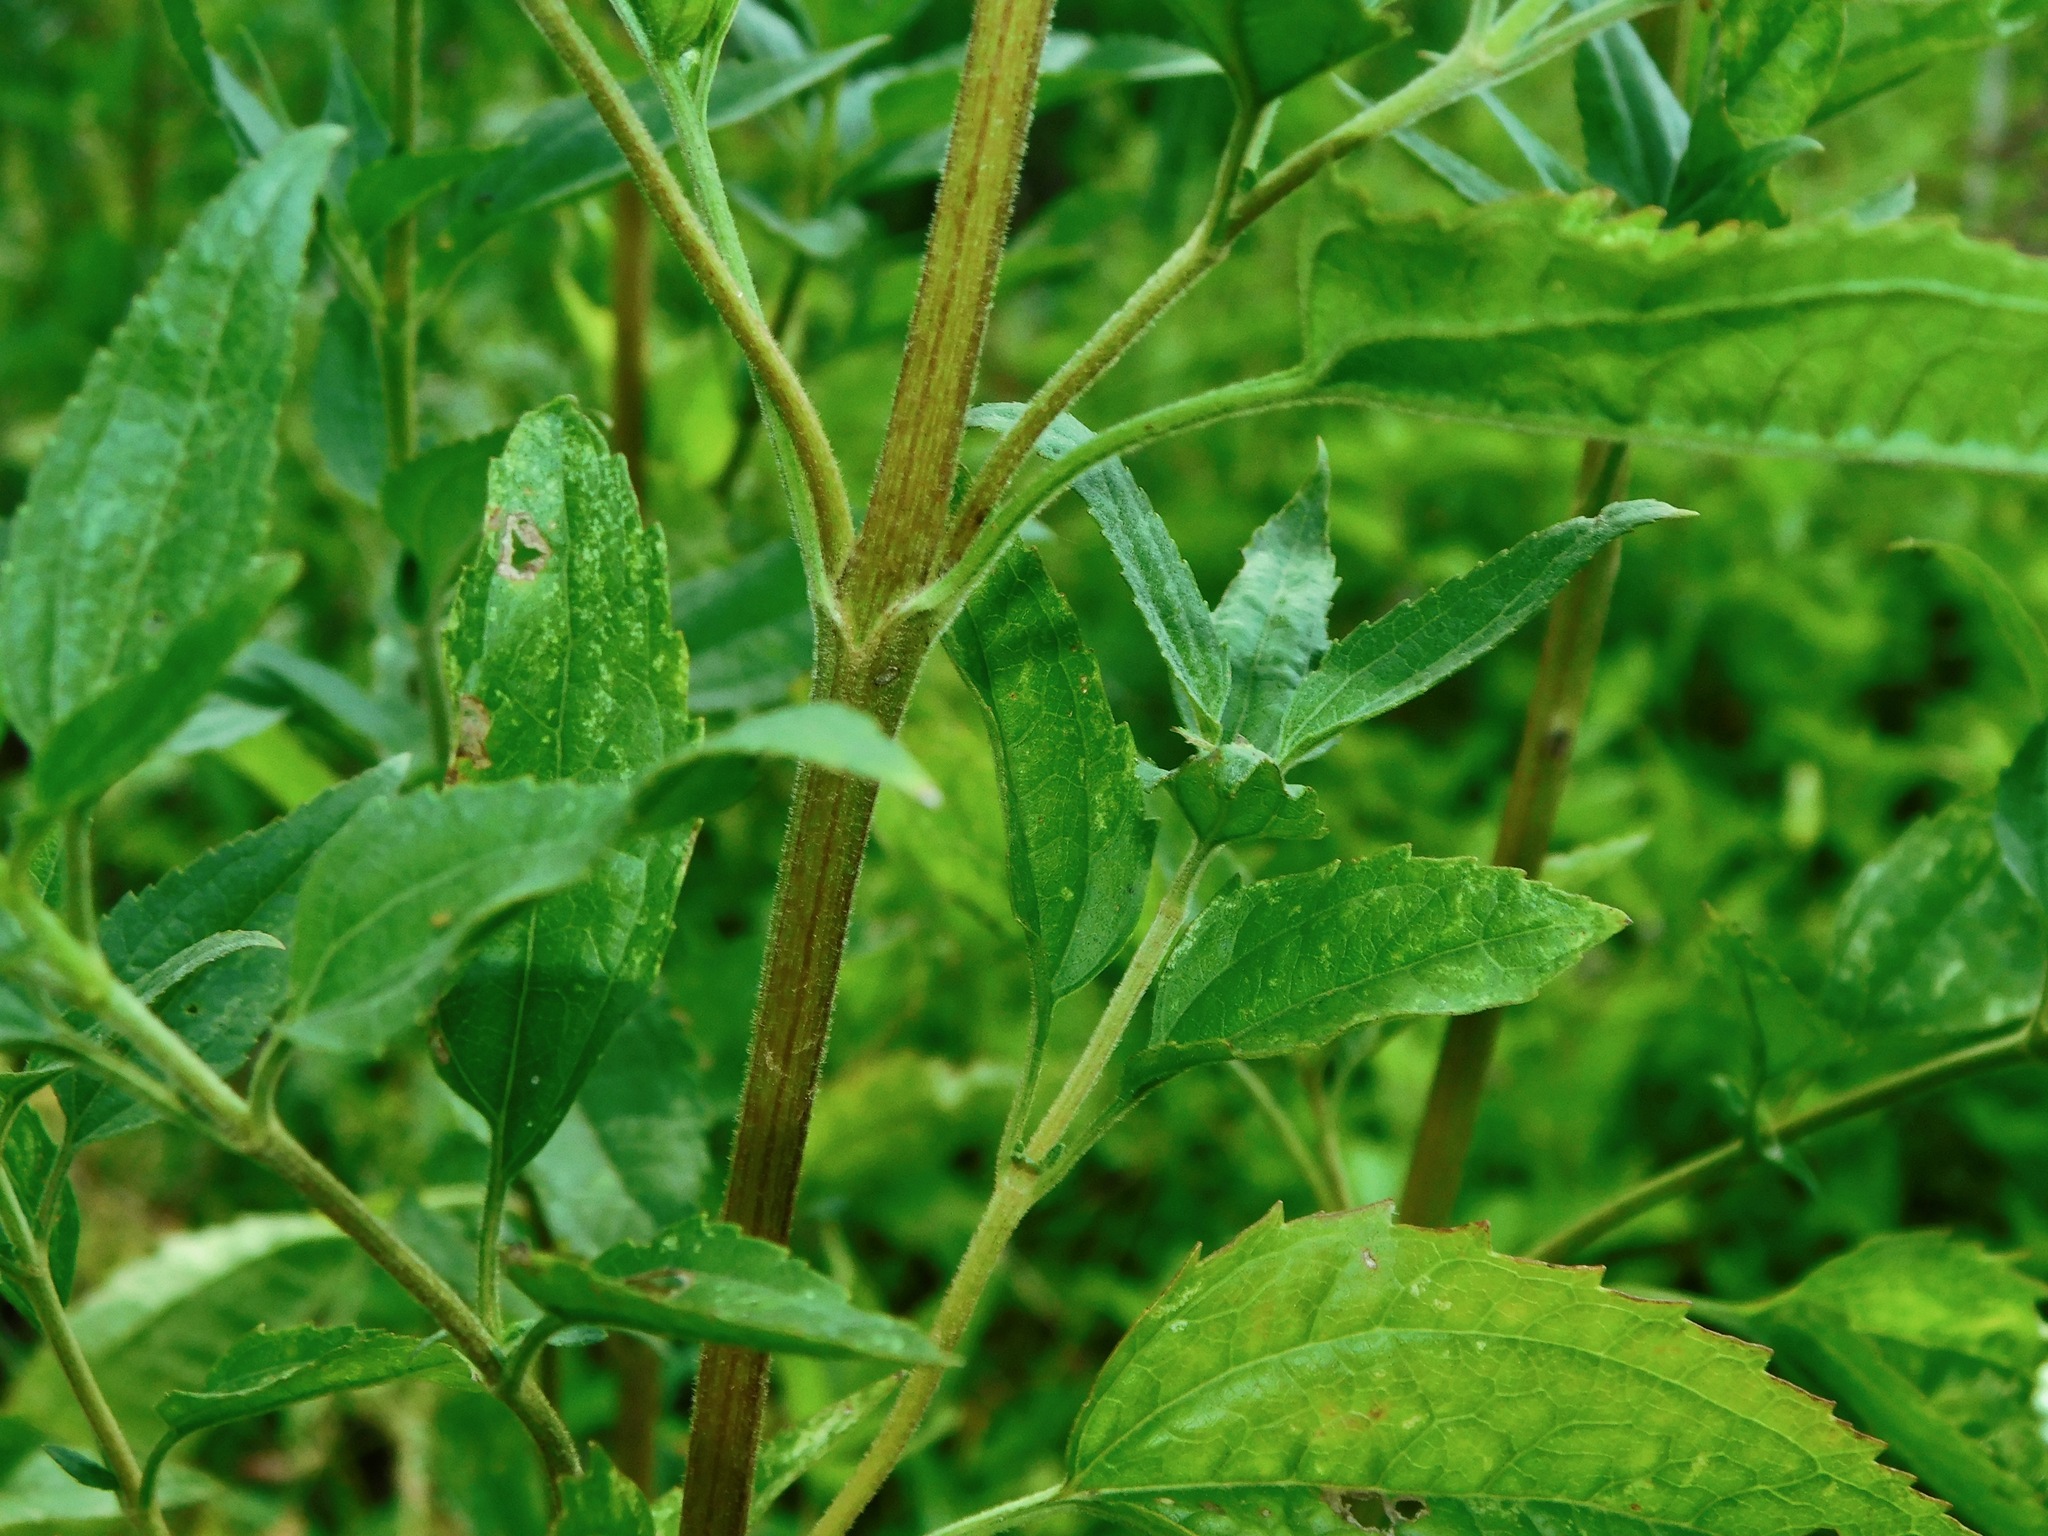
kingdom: Plantae
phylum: Tracheophyta
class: Magnoliopsida
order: Asterales
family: Asteraceae
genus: Eupatorium
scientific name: Eupatorium serotinum
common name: Late boneset
